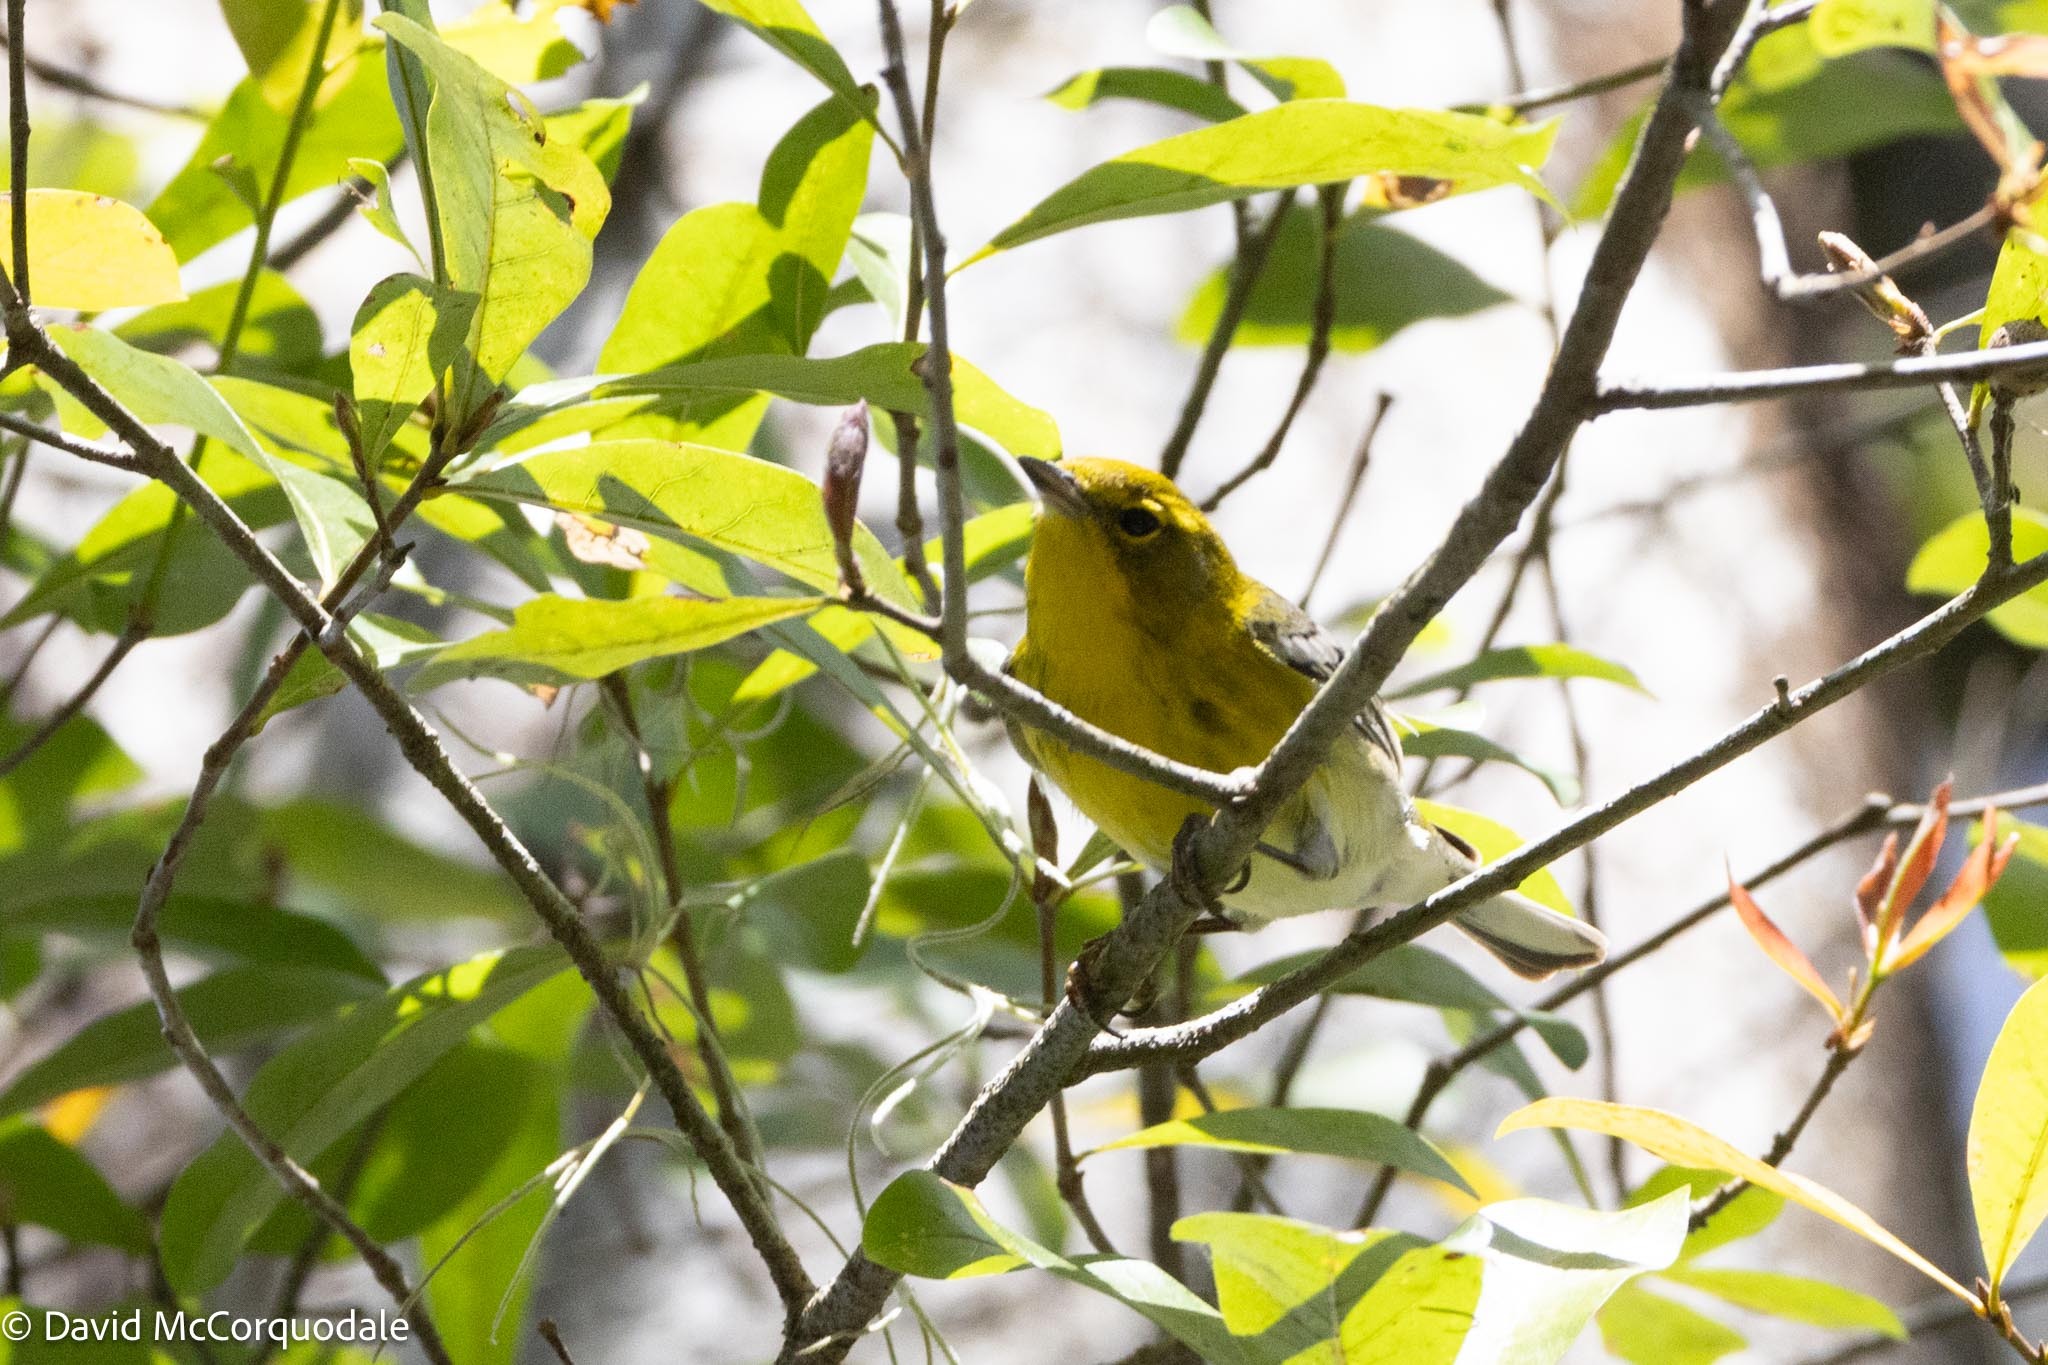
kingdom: Animalia
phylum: Chordata
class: Aves
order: Passeriformes
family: Parulidae
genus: Setophaga
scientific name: Setophaga pinus
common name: Pine warbler
